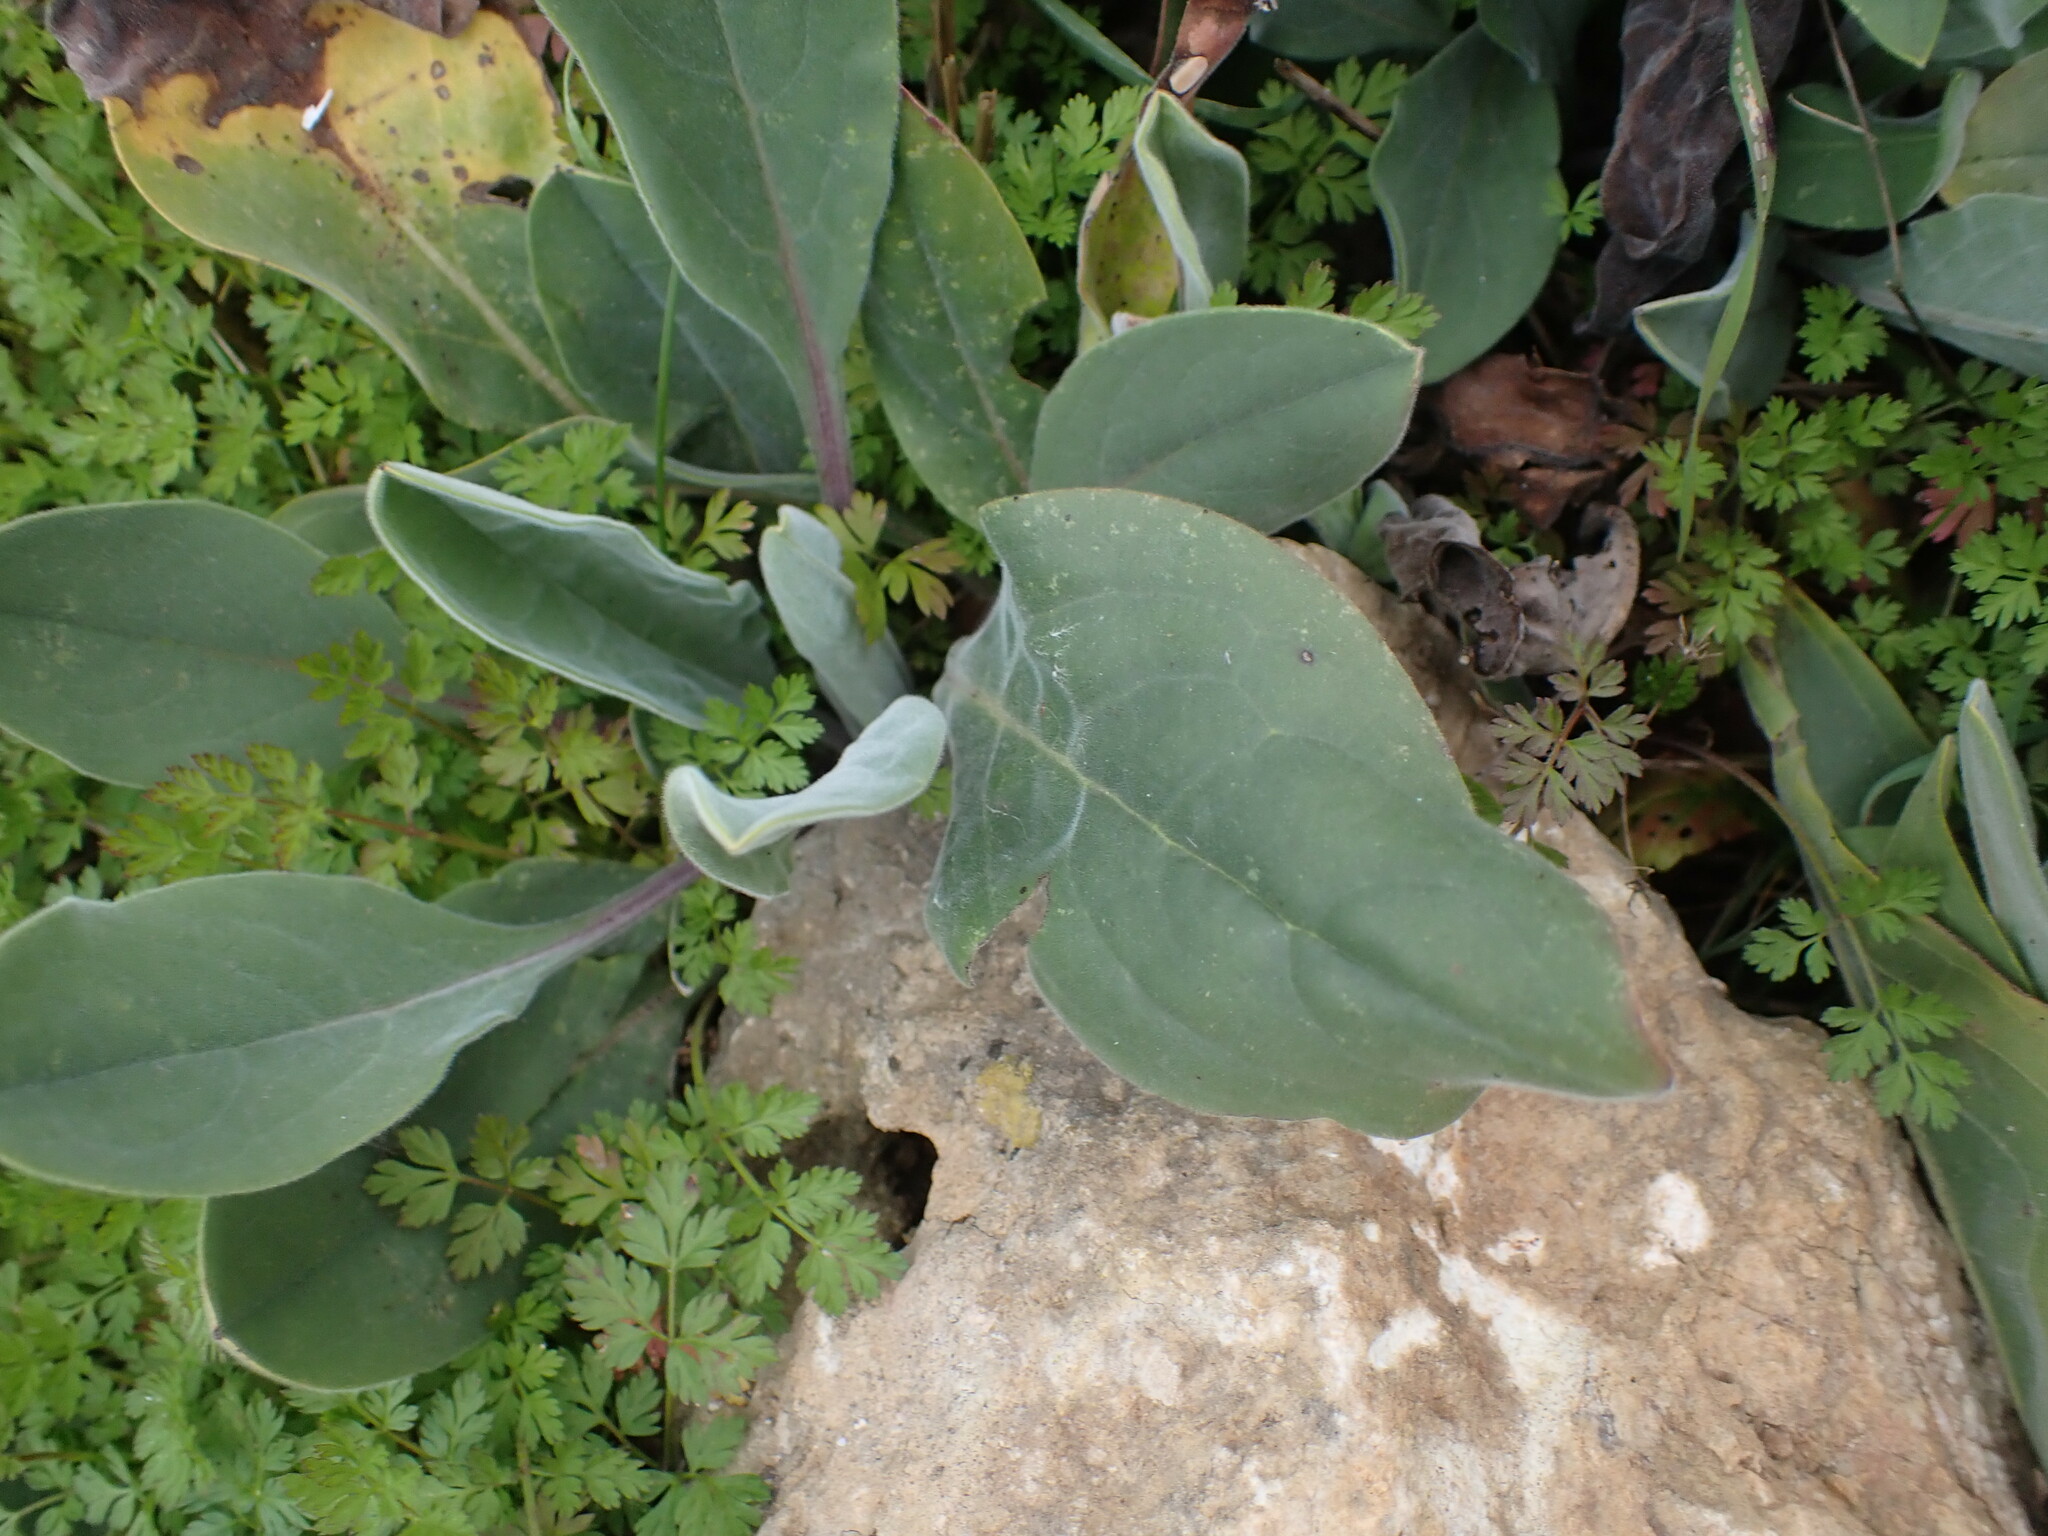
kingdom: Plantae
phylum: Tracheophyta
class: Magnoliopsida
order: Boraginales
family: Boraginaceae
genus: Cynoglossum
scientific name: Cynoglossum creticum
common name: Blue hound's tongue
